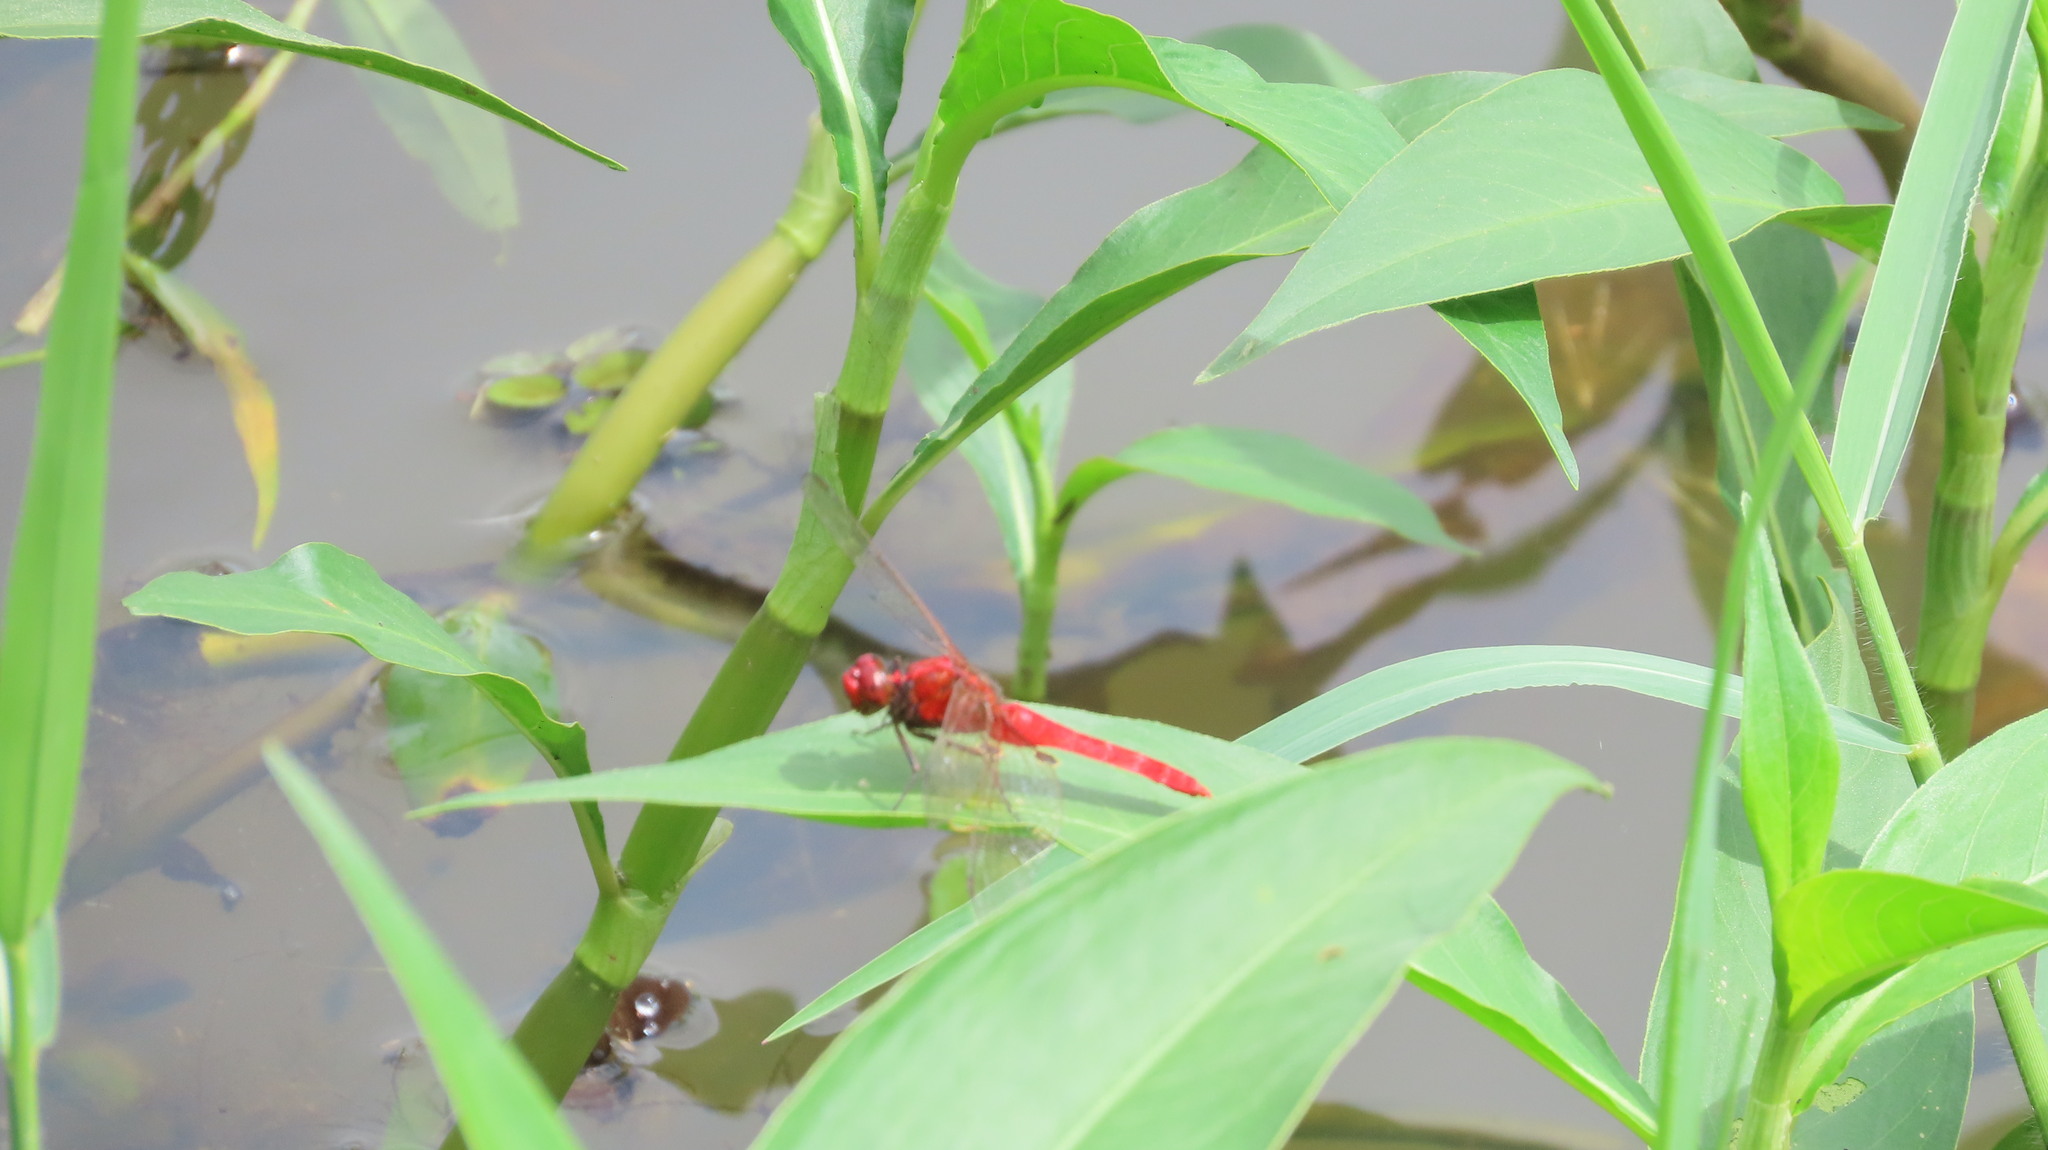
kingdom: Animalia
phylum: Arthropoda
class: Insecta
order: Odonata
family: Libellulidae
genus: Rhodothemis
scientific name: Rhodothemis rufa
